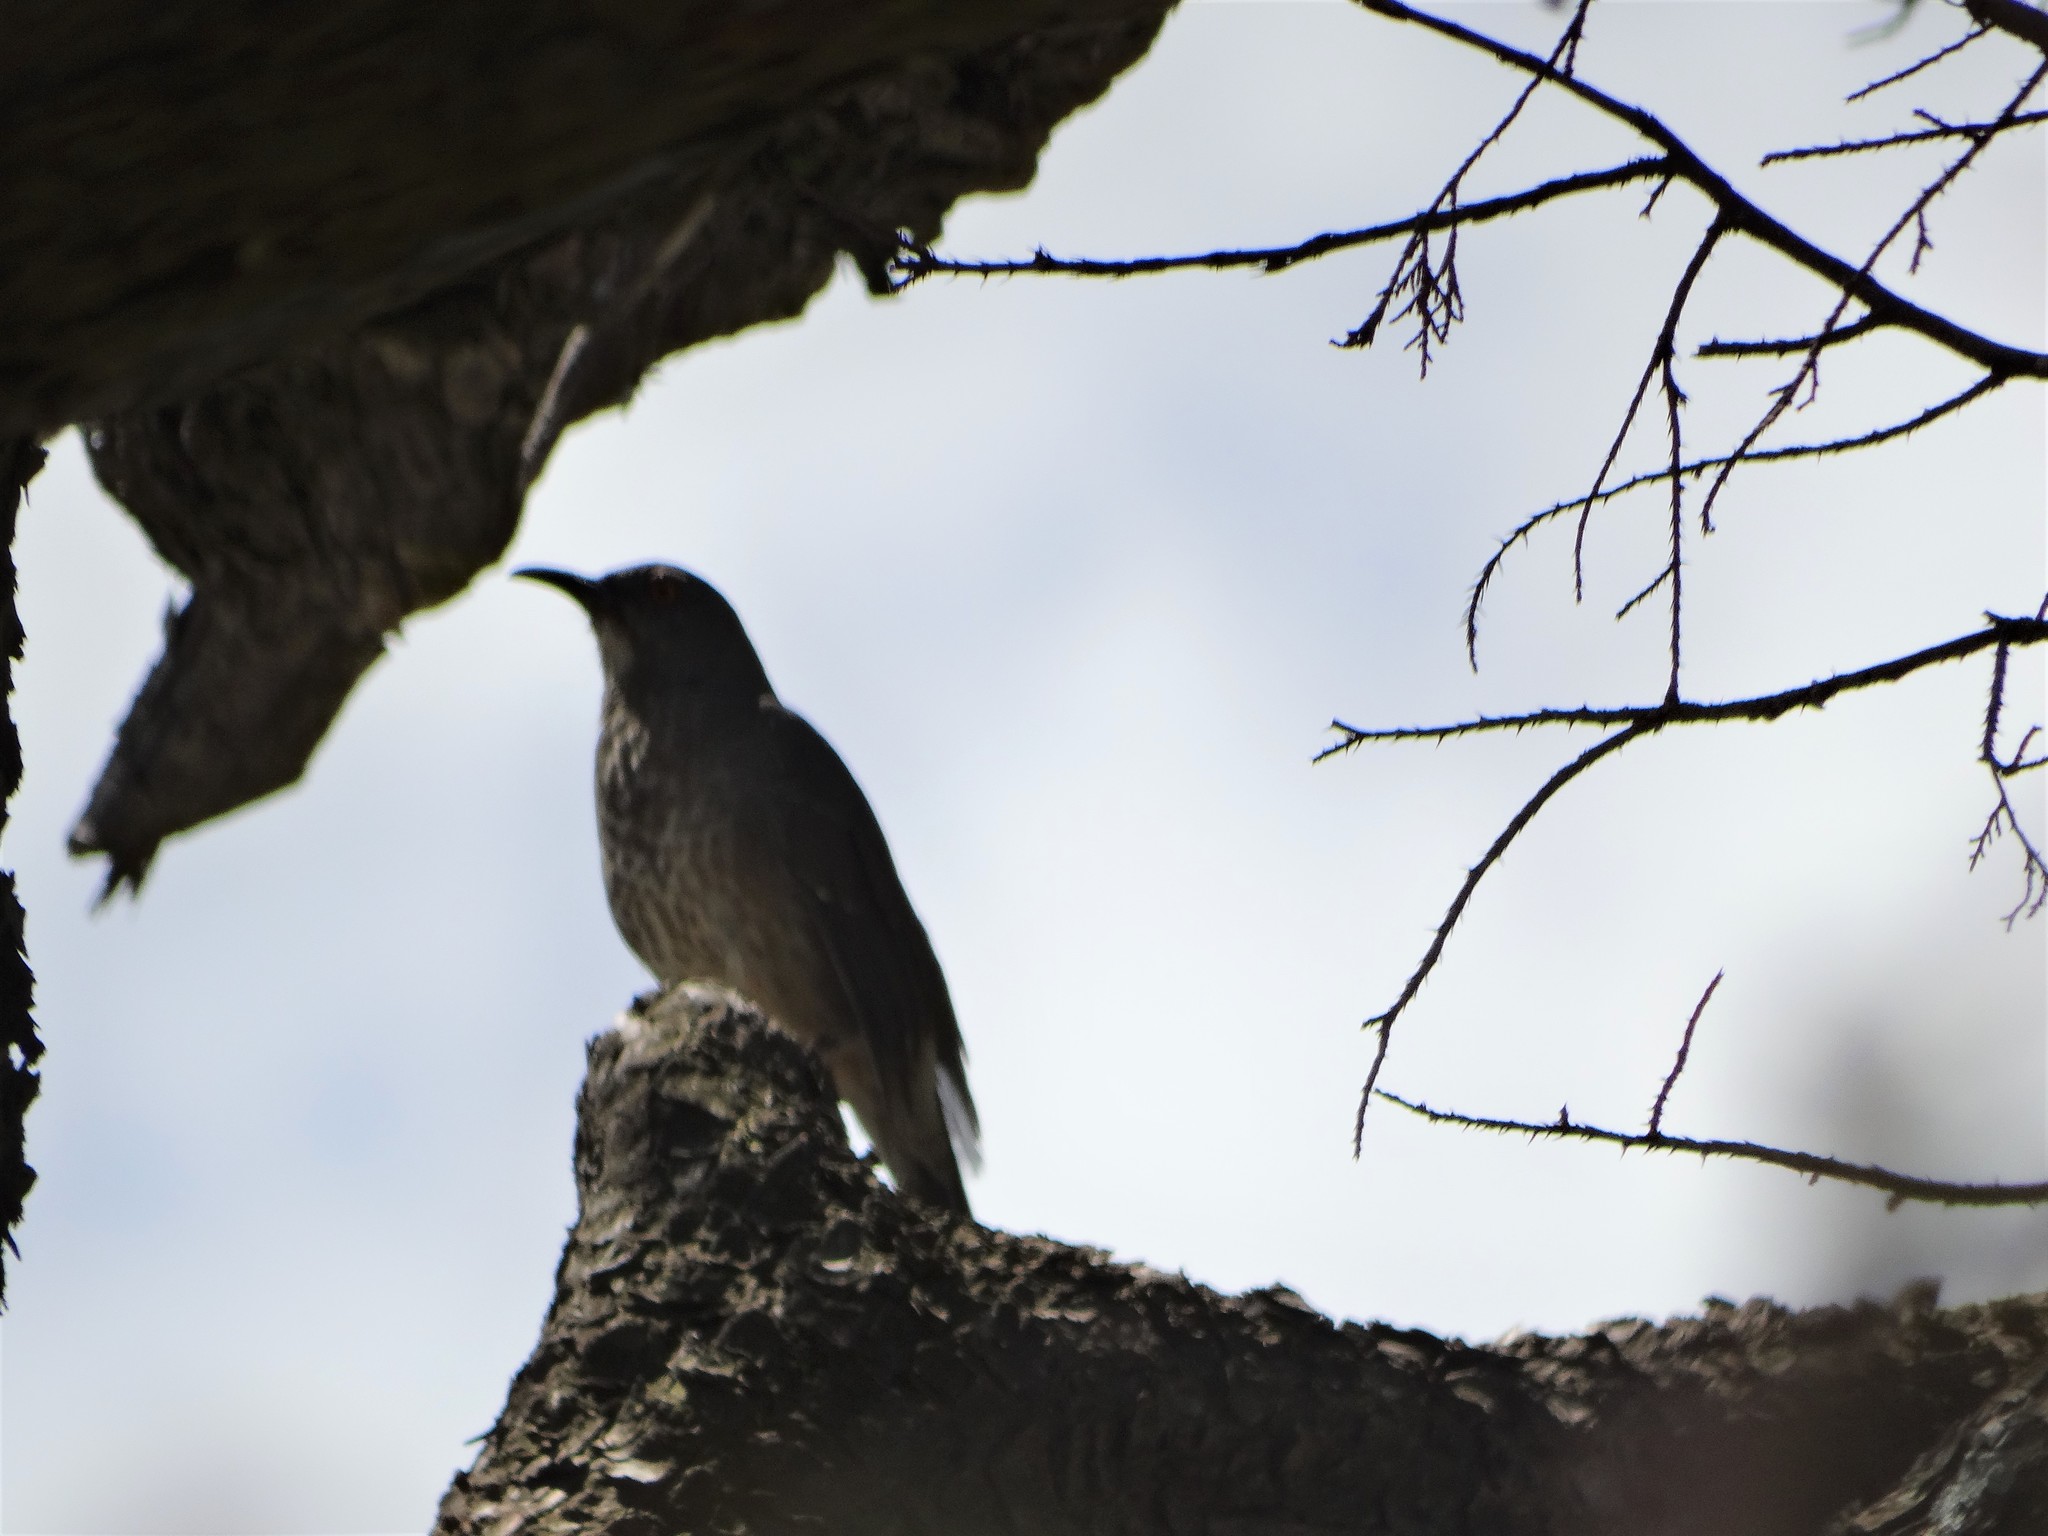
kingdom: Animalia
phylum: Chordata
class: Aves
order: Passeriformes
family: Mimidae
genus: Toxostoma
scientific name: Toxostoma curvirostre
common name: Curve-billed thrasher
